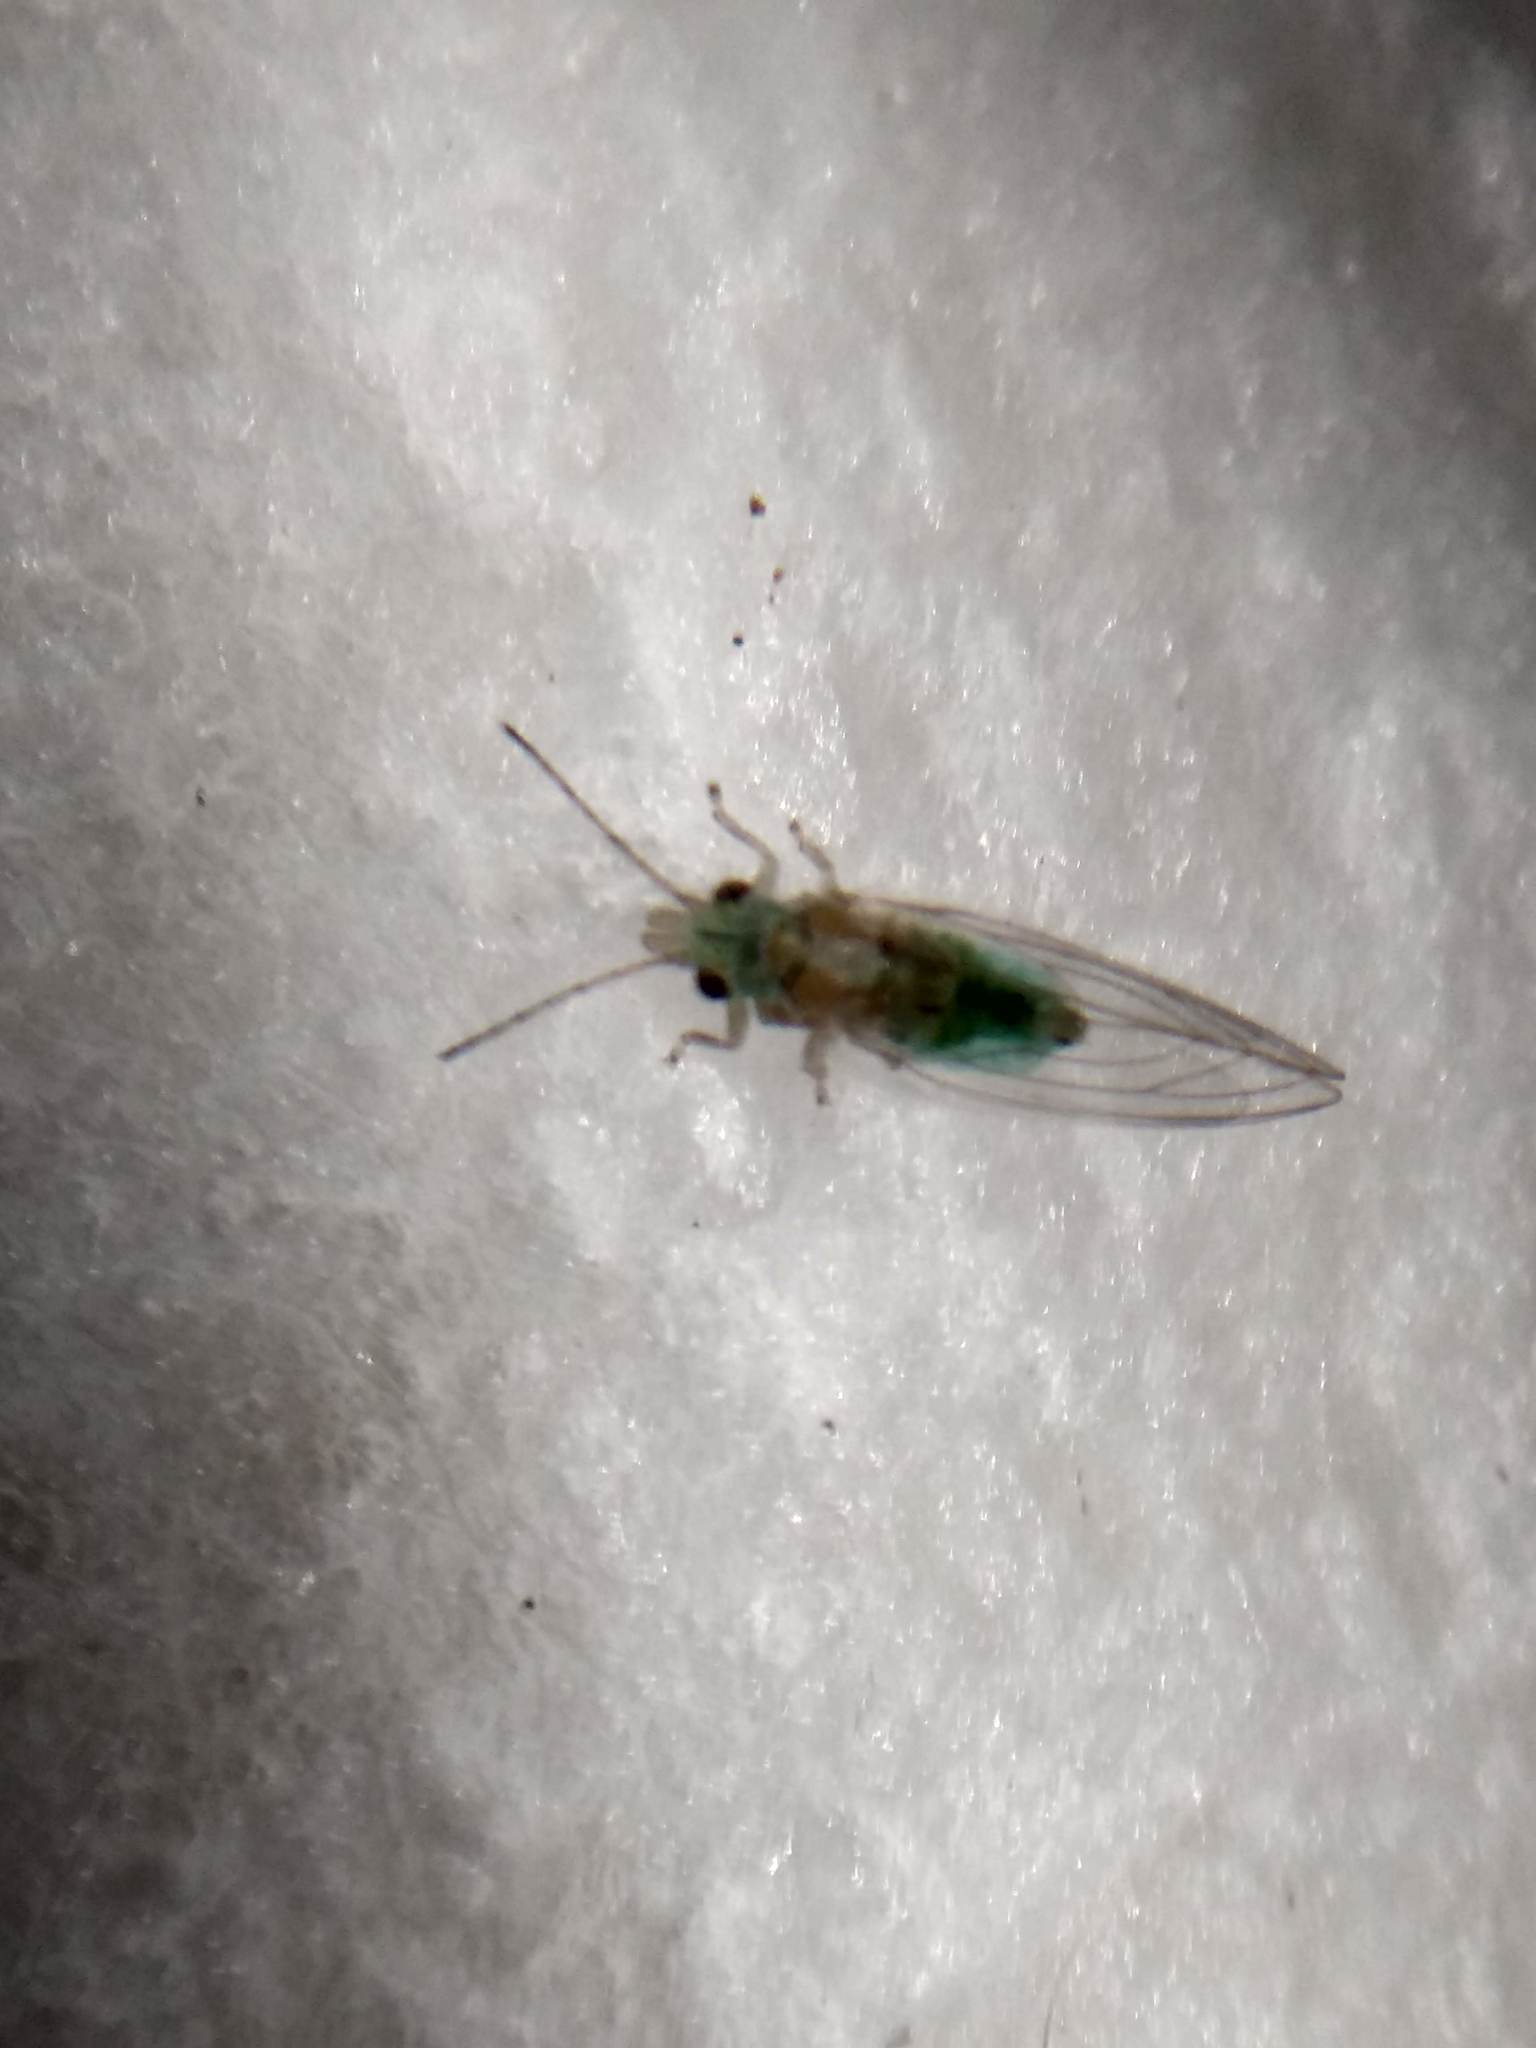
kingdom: Animalia
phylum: Arthropoda
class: Insecta
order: Hemiptera
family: Aphalaridae
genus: Glycaspis
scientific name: Glycaspis brimblecombei
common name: Red gum lerp psyllid
